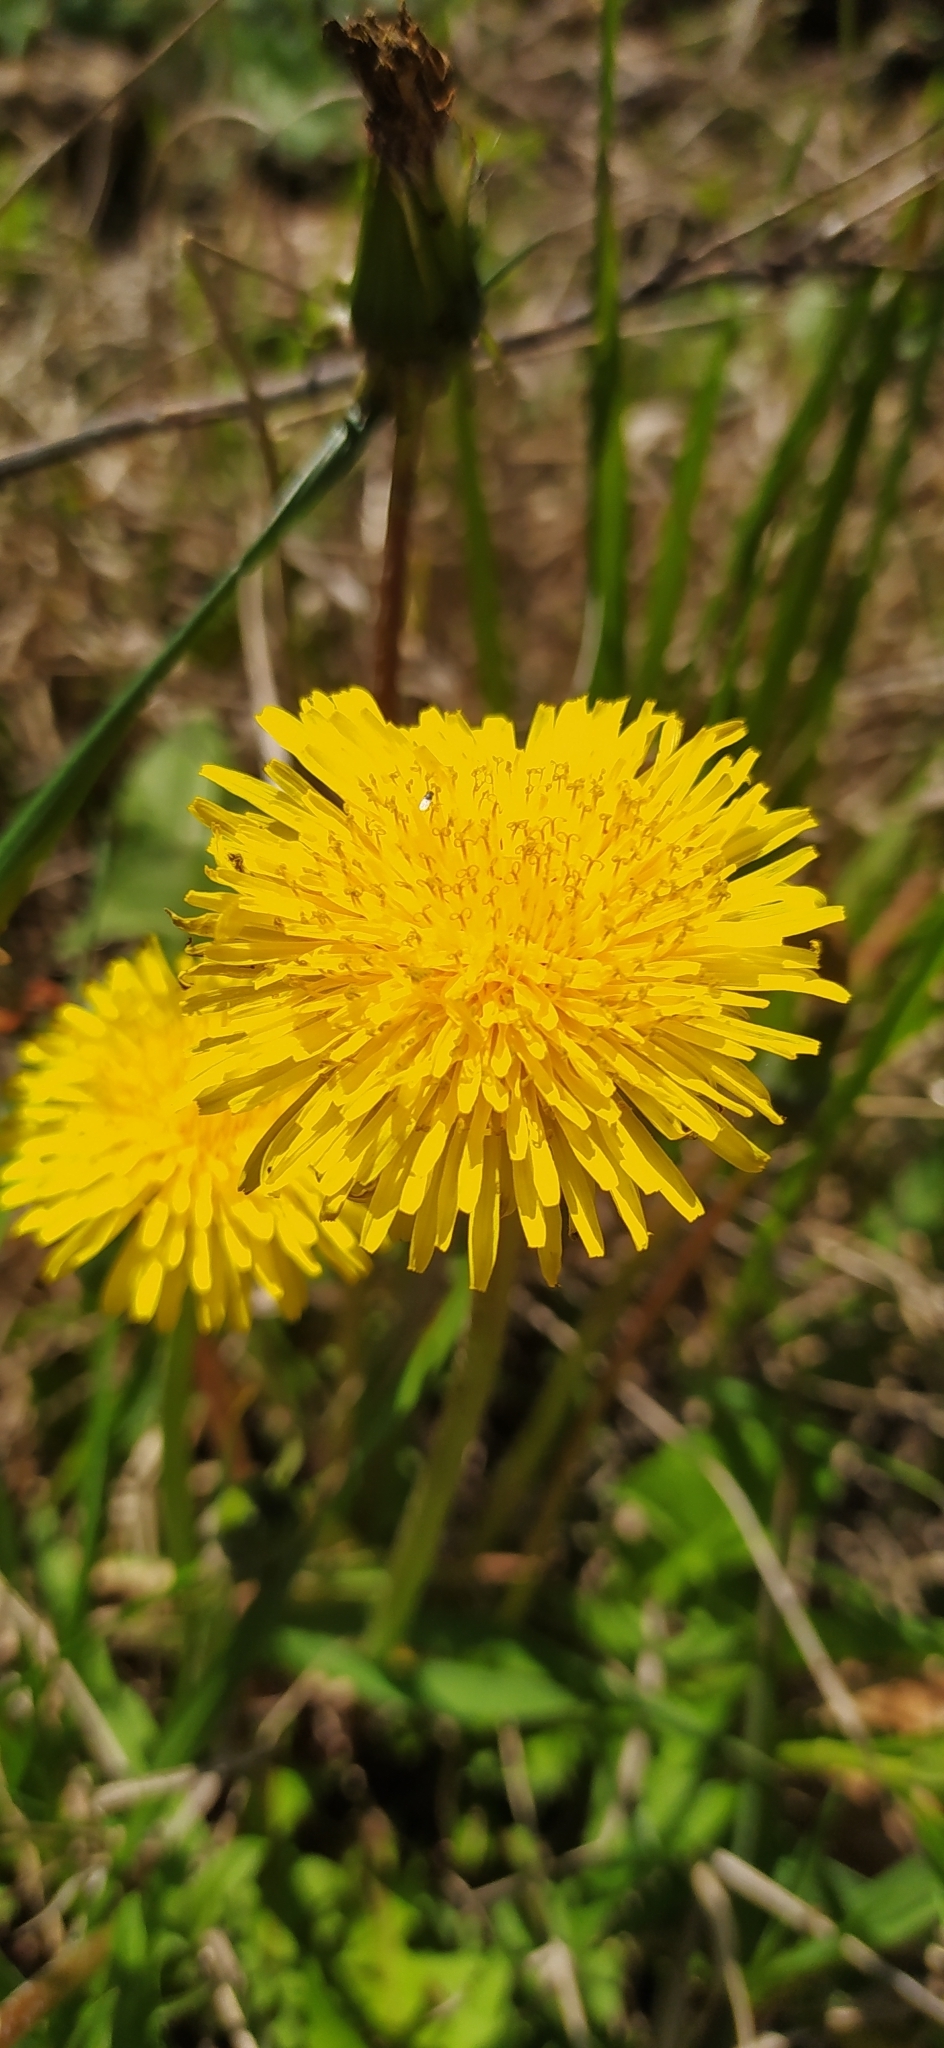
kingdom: Plantae
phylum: Tracheophyta
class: Magnoliopsida
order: Asterales
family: Asteraceae
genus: Taraxacum
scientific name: Taraxacum officinale
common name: Common dandelion
